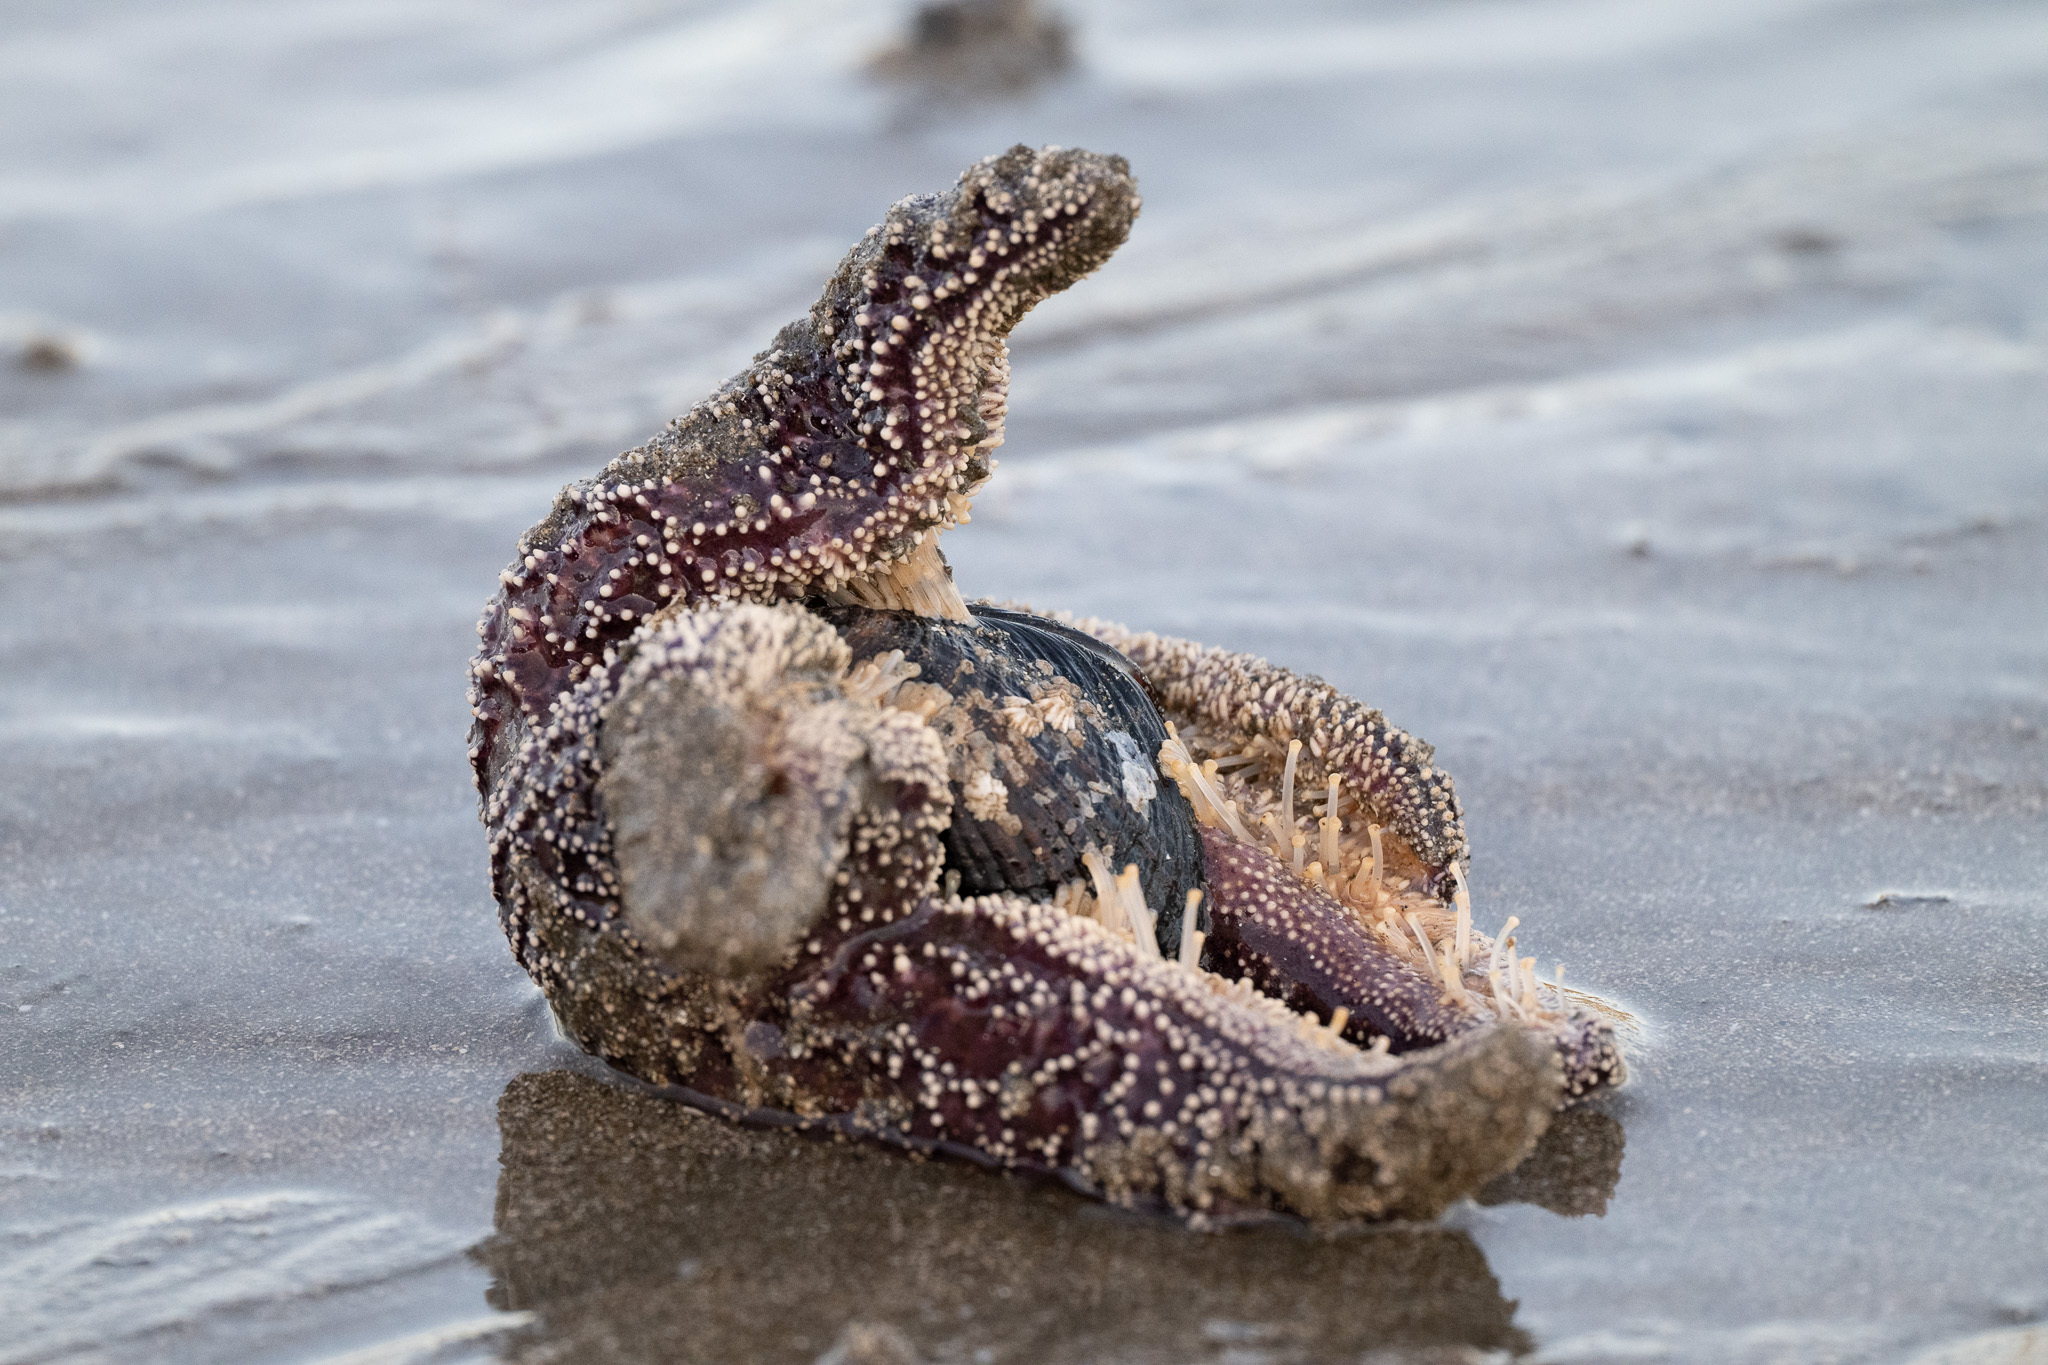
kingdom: Animalia
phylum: Mollusca
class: Bivalvia
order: Mytilida
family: Mytilidae
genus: Mytilus
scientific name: Mytilus californianus
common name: California mussel
